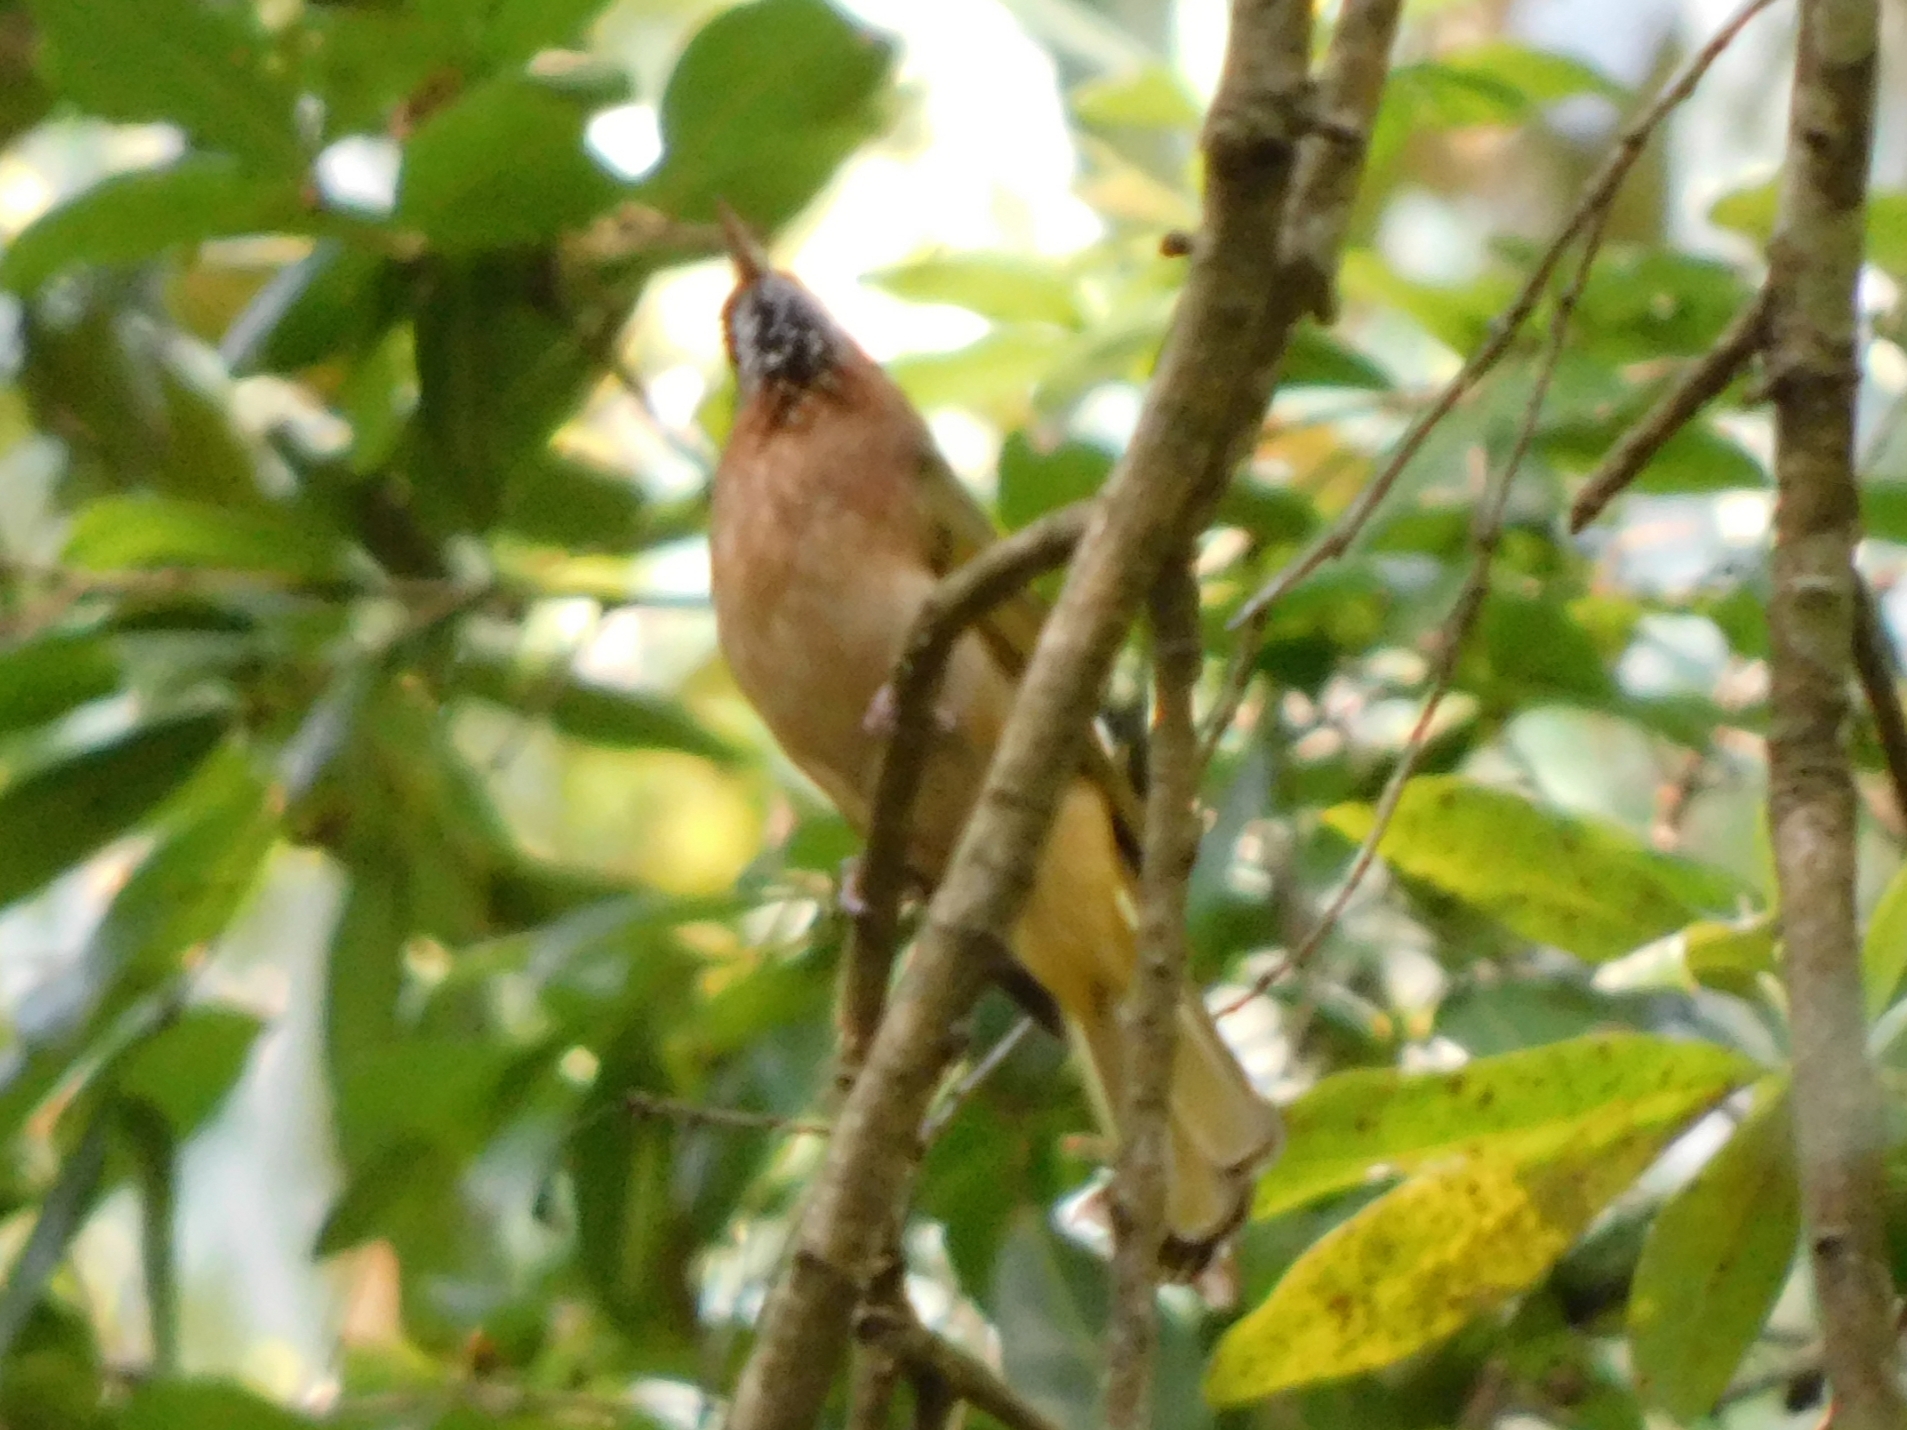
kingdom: Animalia
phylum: Chordata
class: Aves
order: Passeriformes
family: Pycnonotidae
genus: Ixos
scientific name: Ixos mcclellandii
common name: Mountain bulbul
